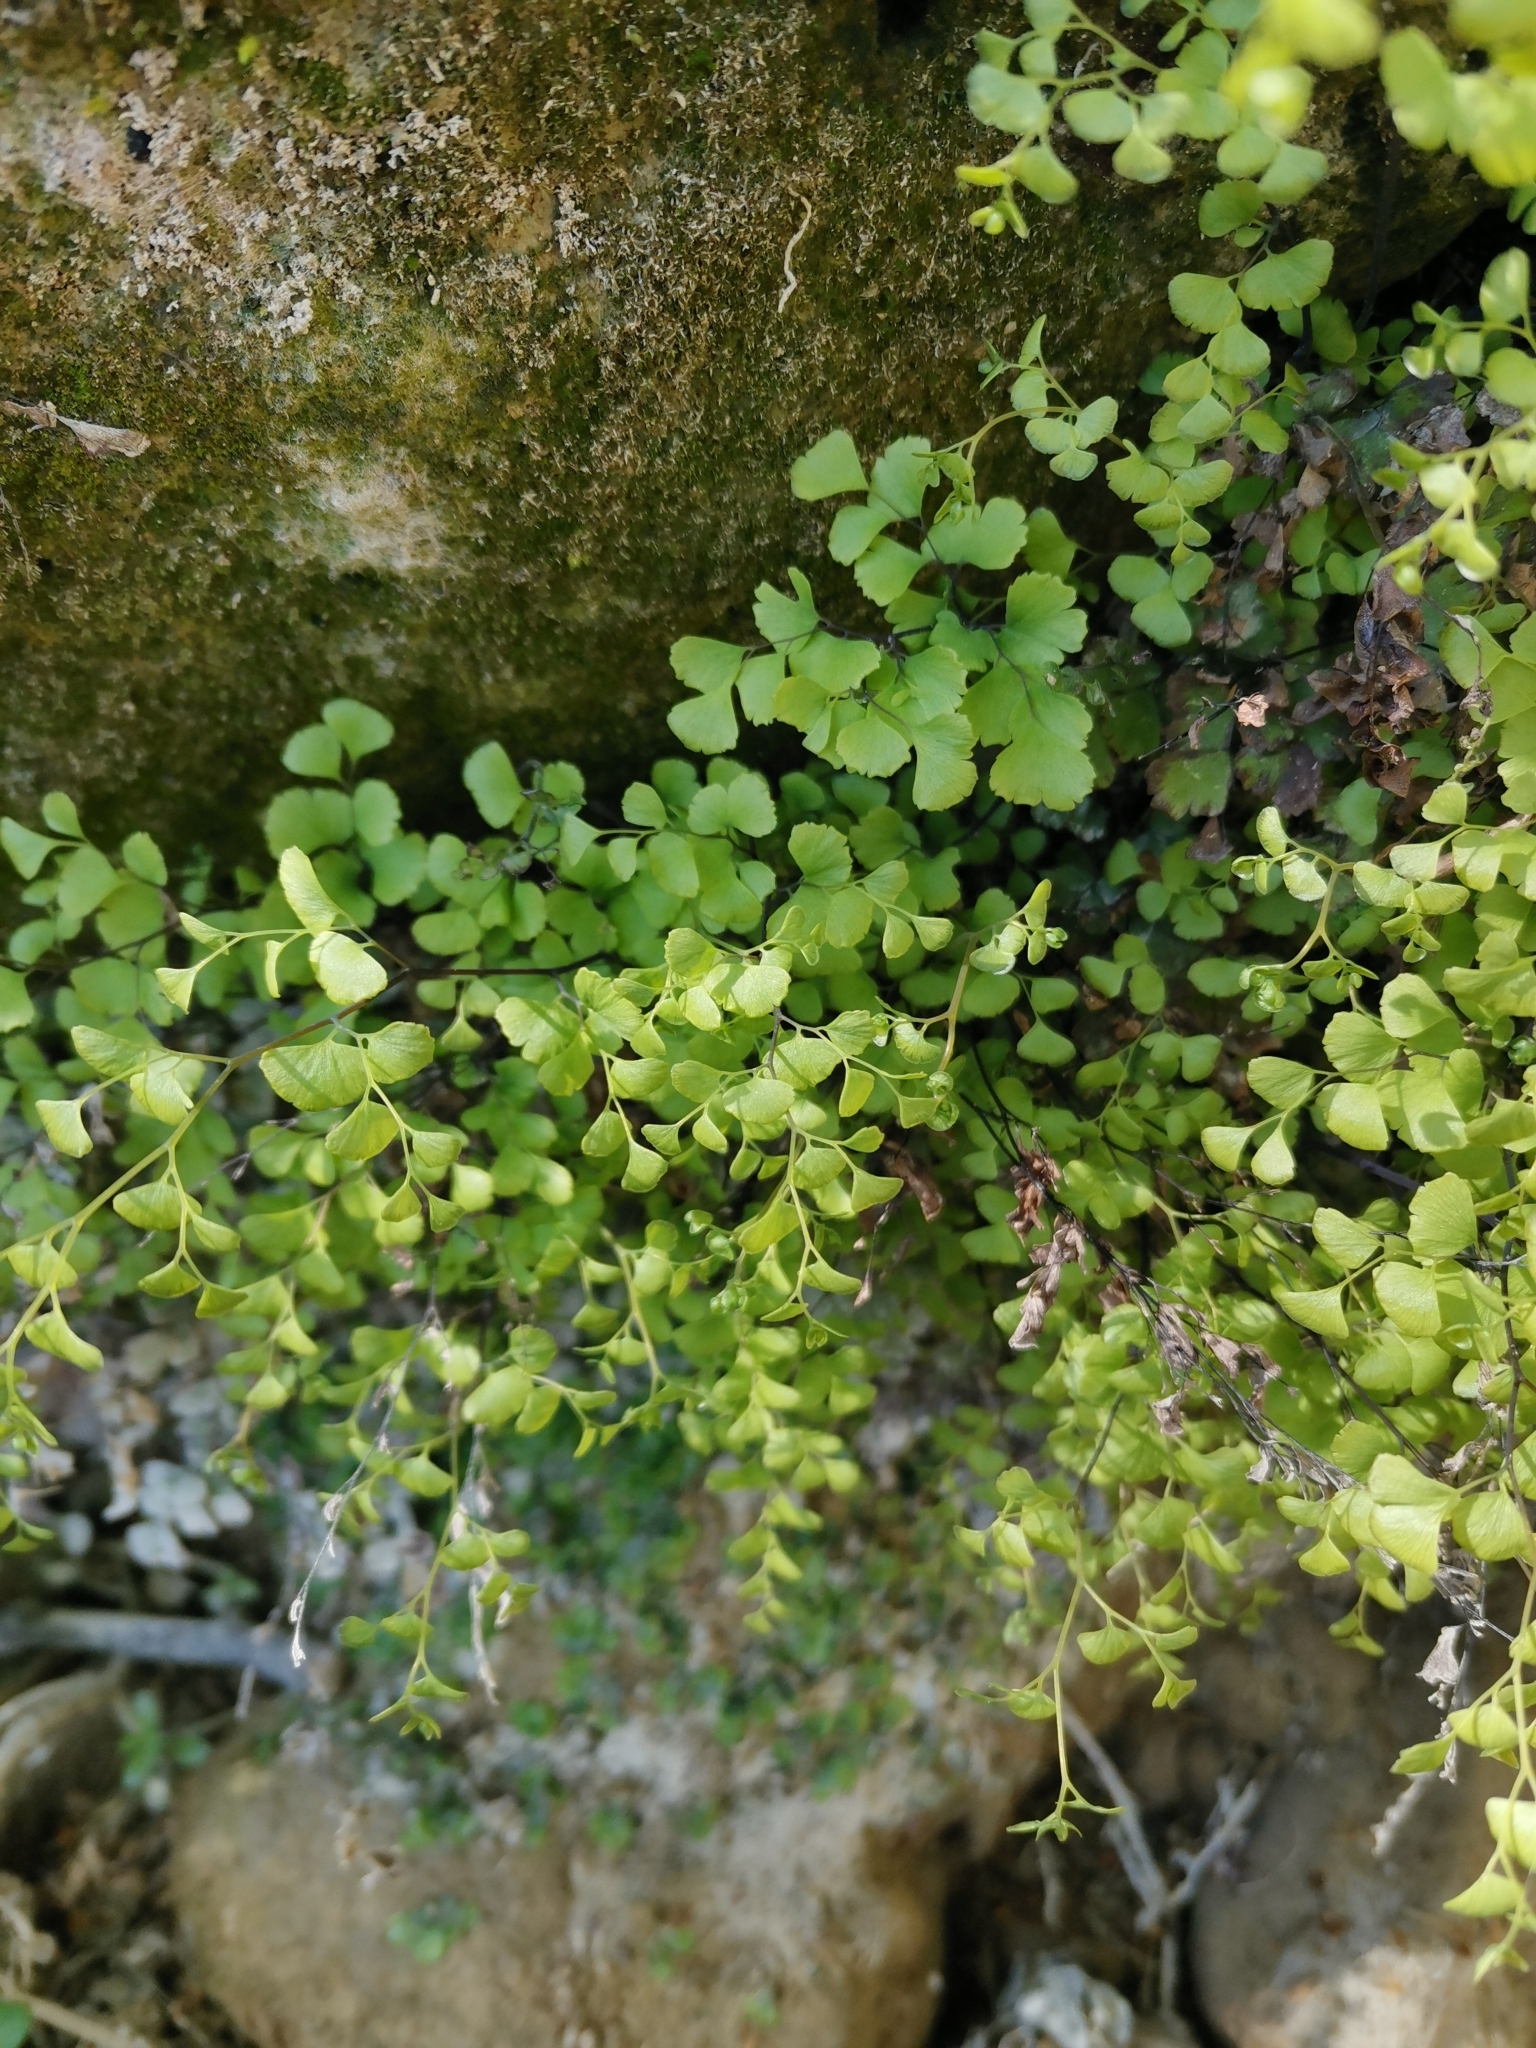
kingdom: Plantae
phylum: Tracheophyta
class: Polypodiopsida
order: Polypodiales
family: Pteridaceae
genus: Adiantum
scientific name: Adiantum capillus-veneris
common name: Maidenhair fern
